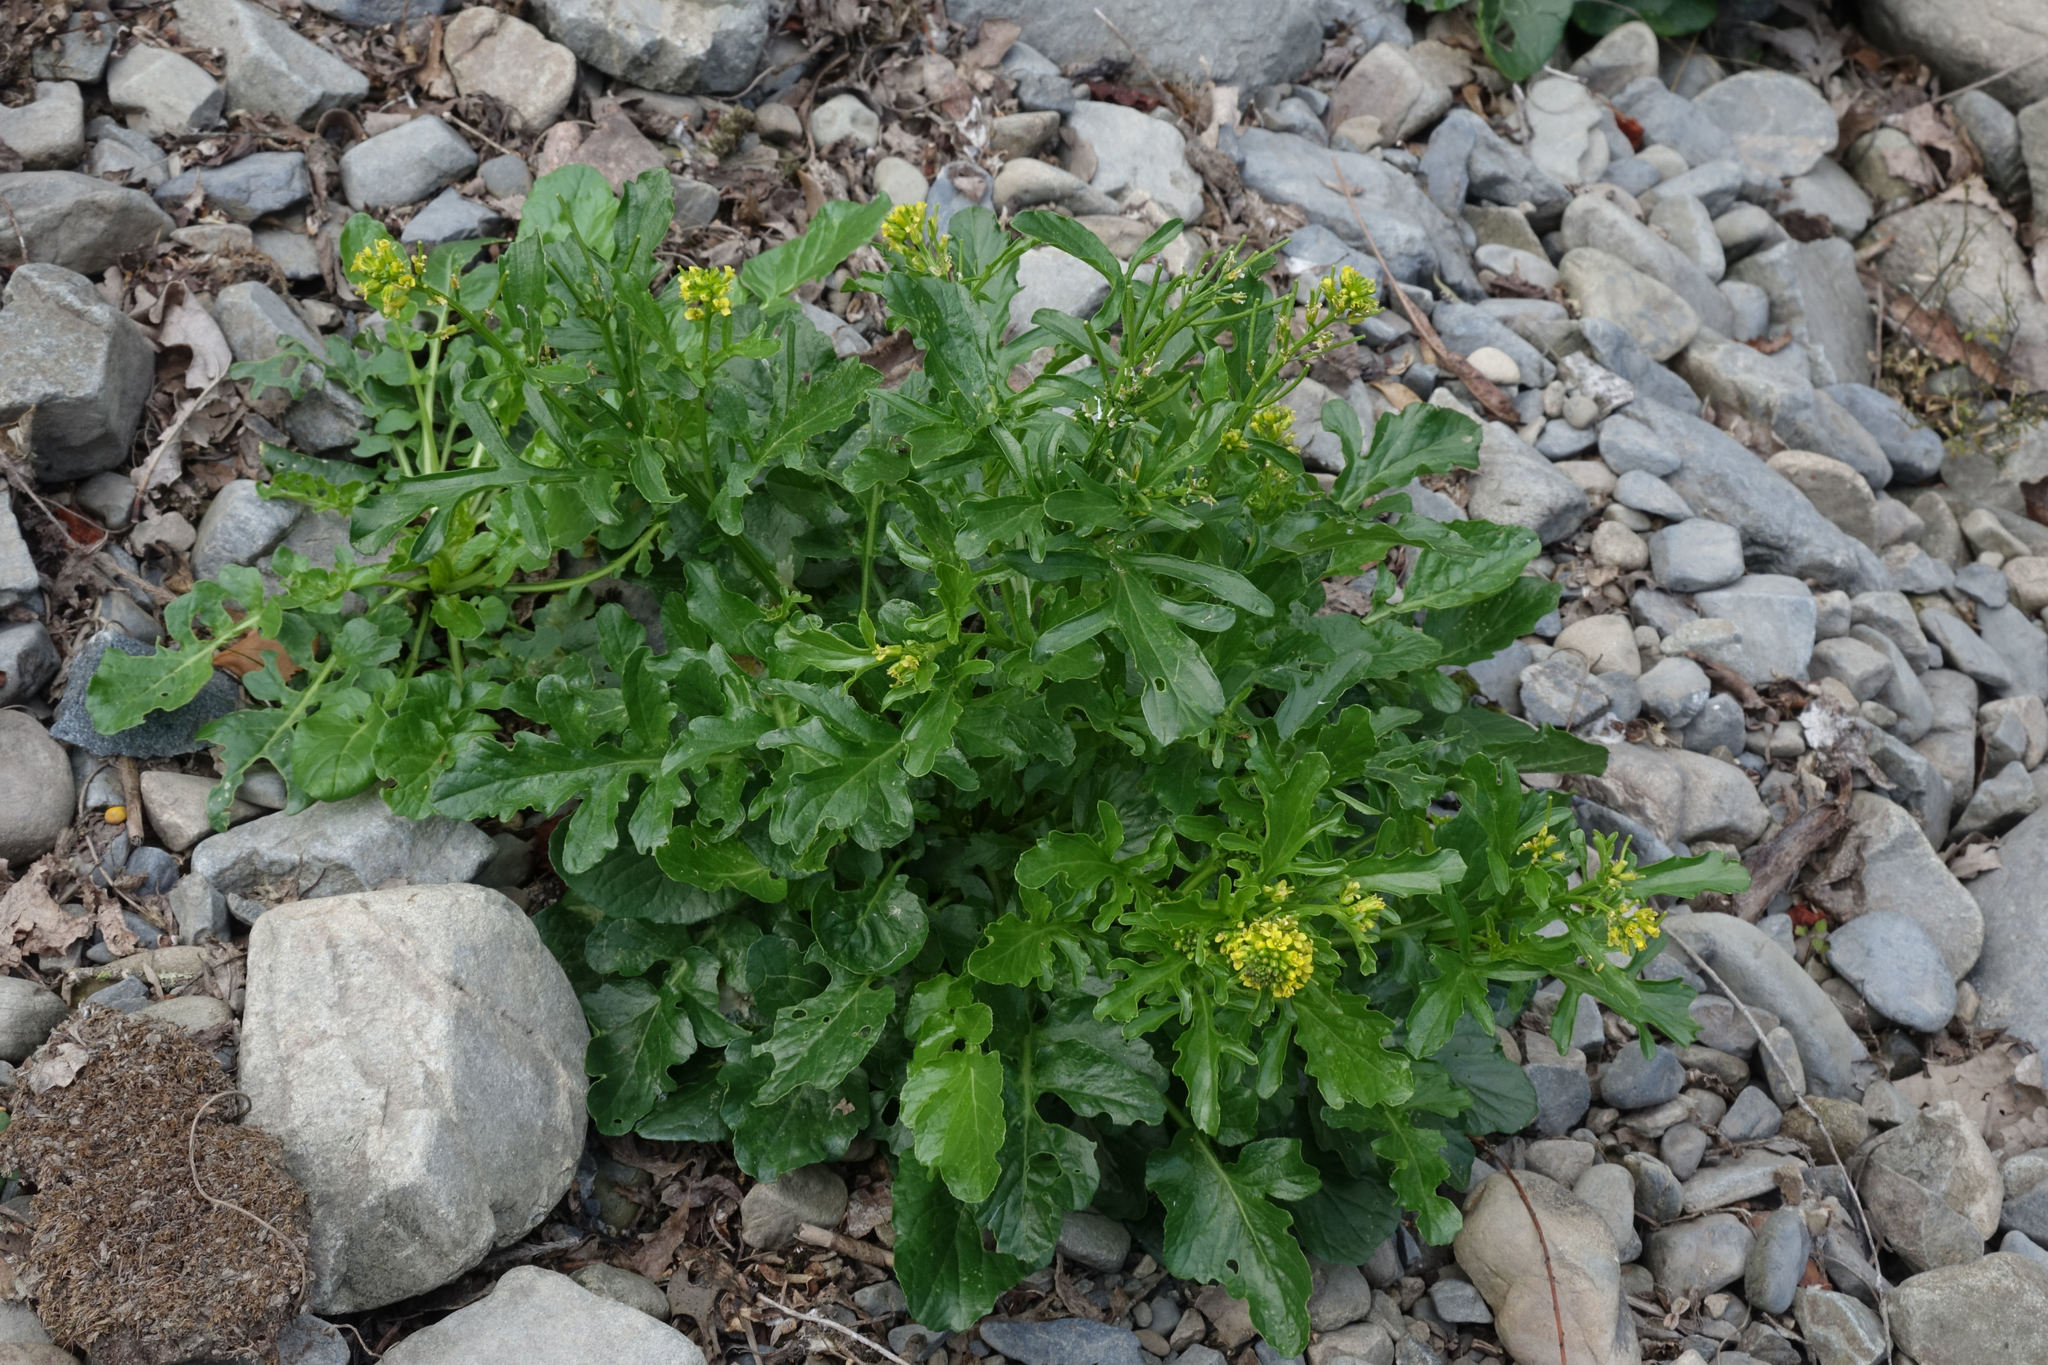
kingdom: Plantae
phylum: Tracheophyta
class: Magnoliopsida
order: Brassicales
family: Brassicaceae
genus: Barbarea
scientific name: Barbarea intermedia
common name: Medium-flowered winter-cress
